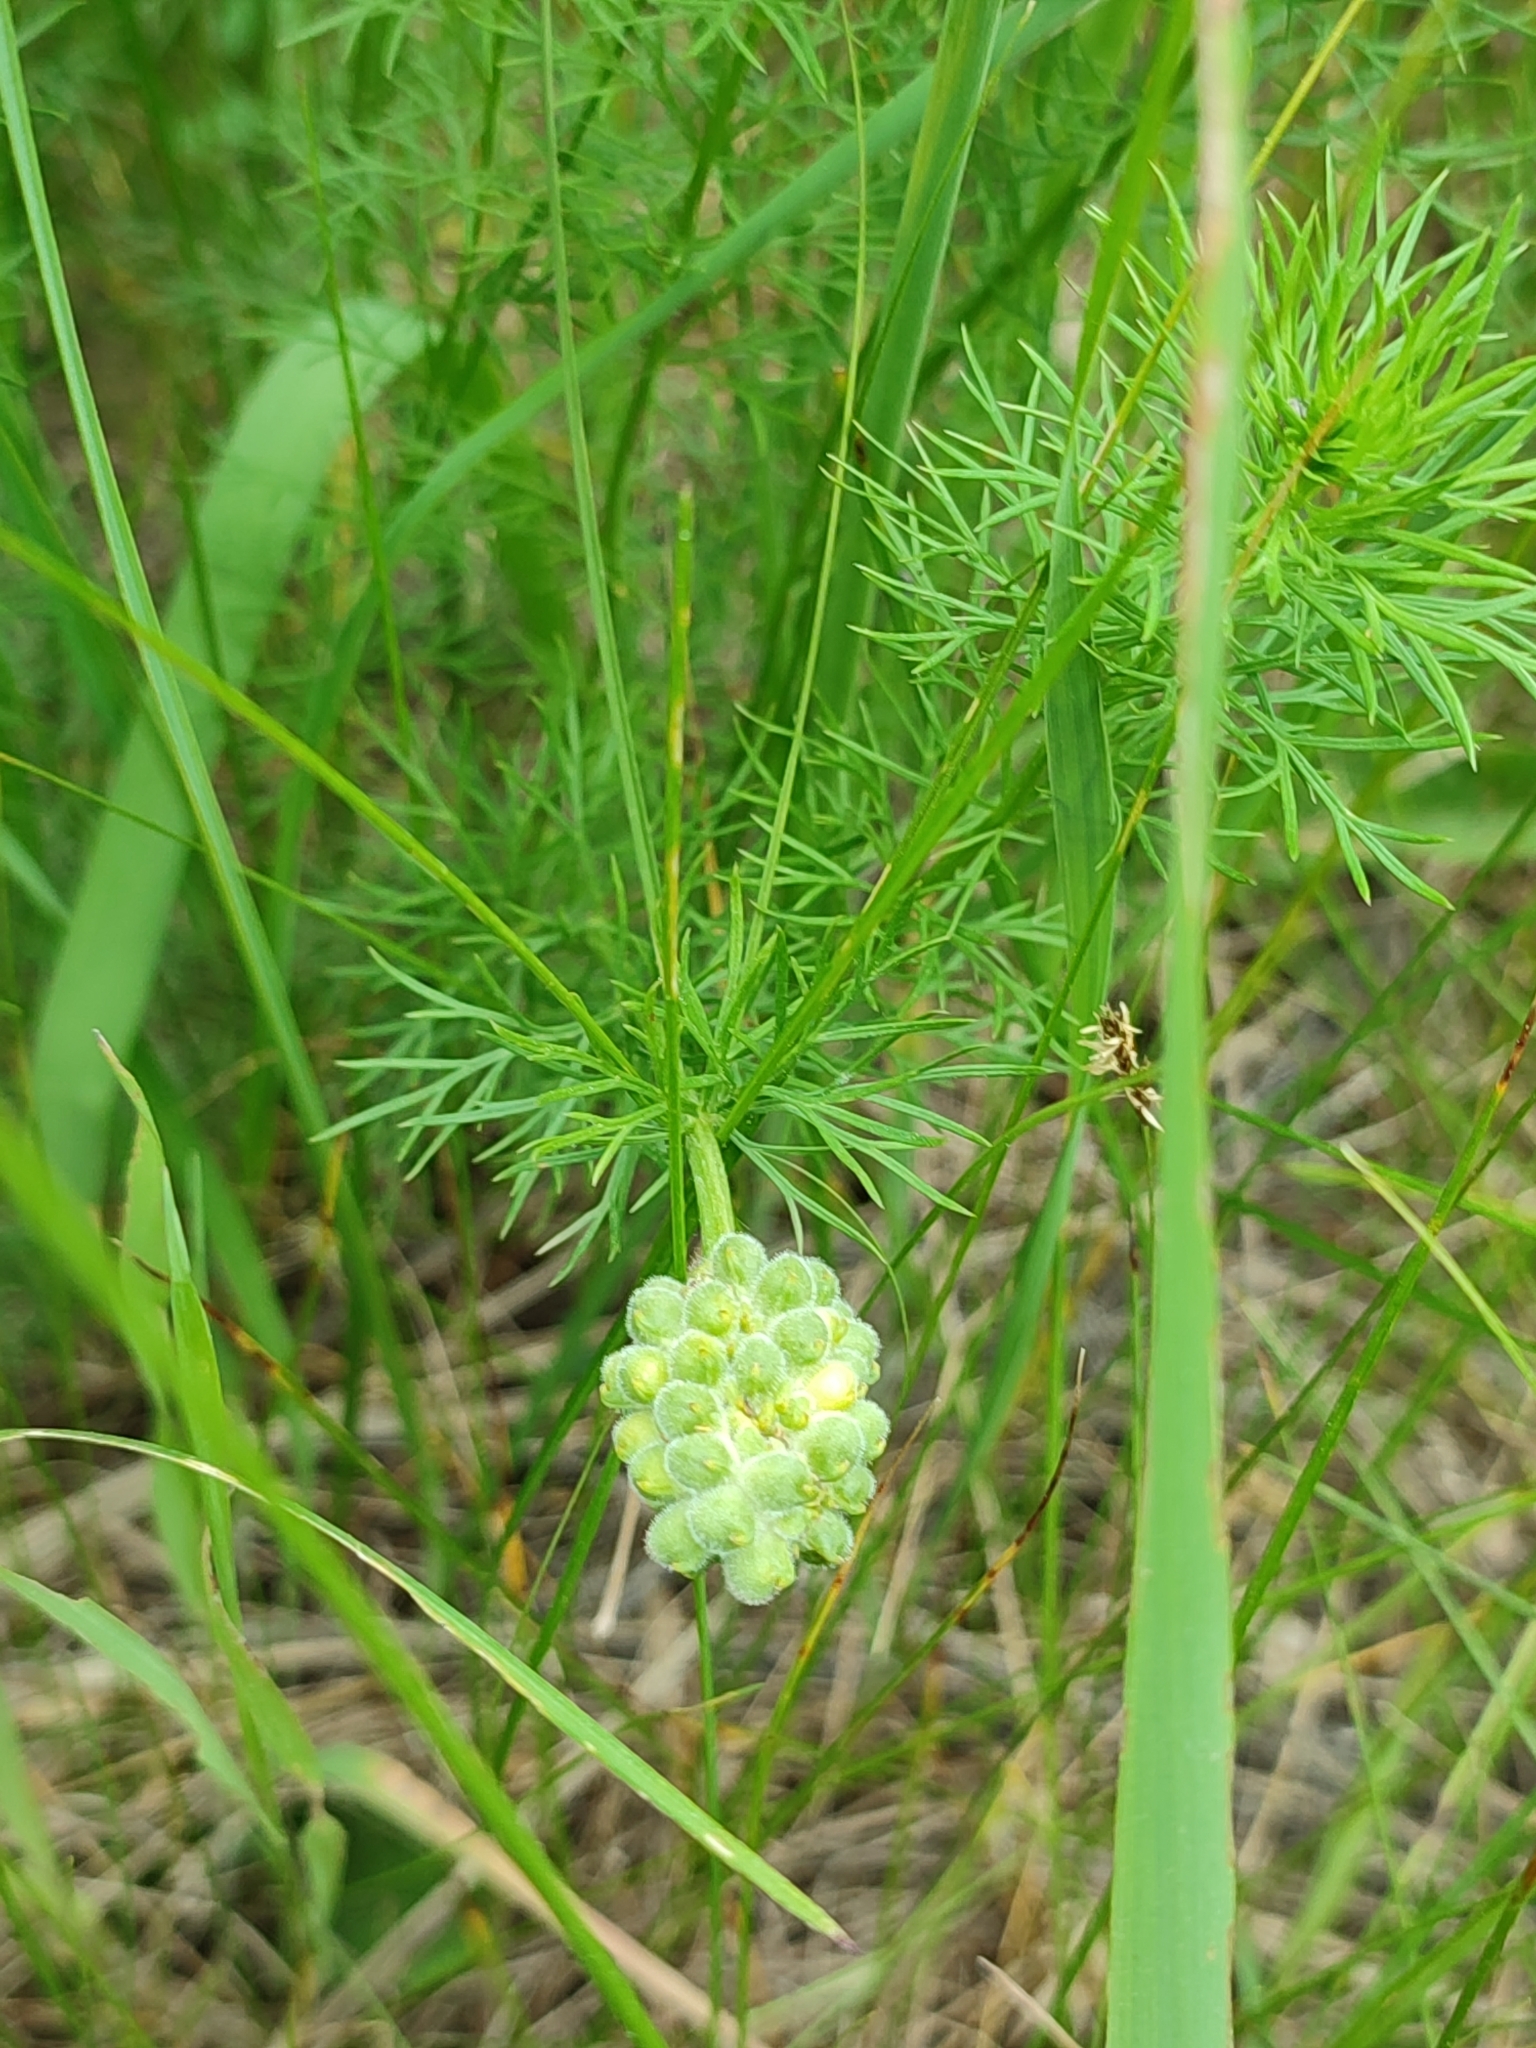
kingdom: Plantae
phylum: Tracheophyta
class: Magnoliopsida
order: Ranunculales
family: Ranunculaceae
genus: Adonis
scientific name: Adonis vernalis
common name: Yellow pheasants-eye
